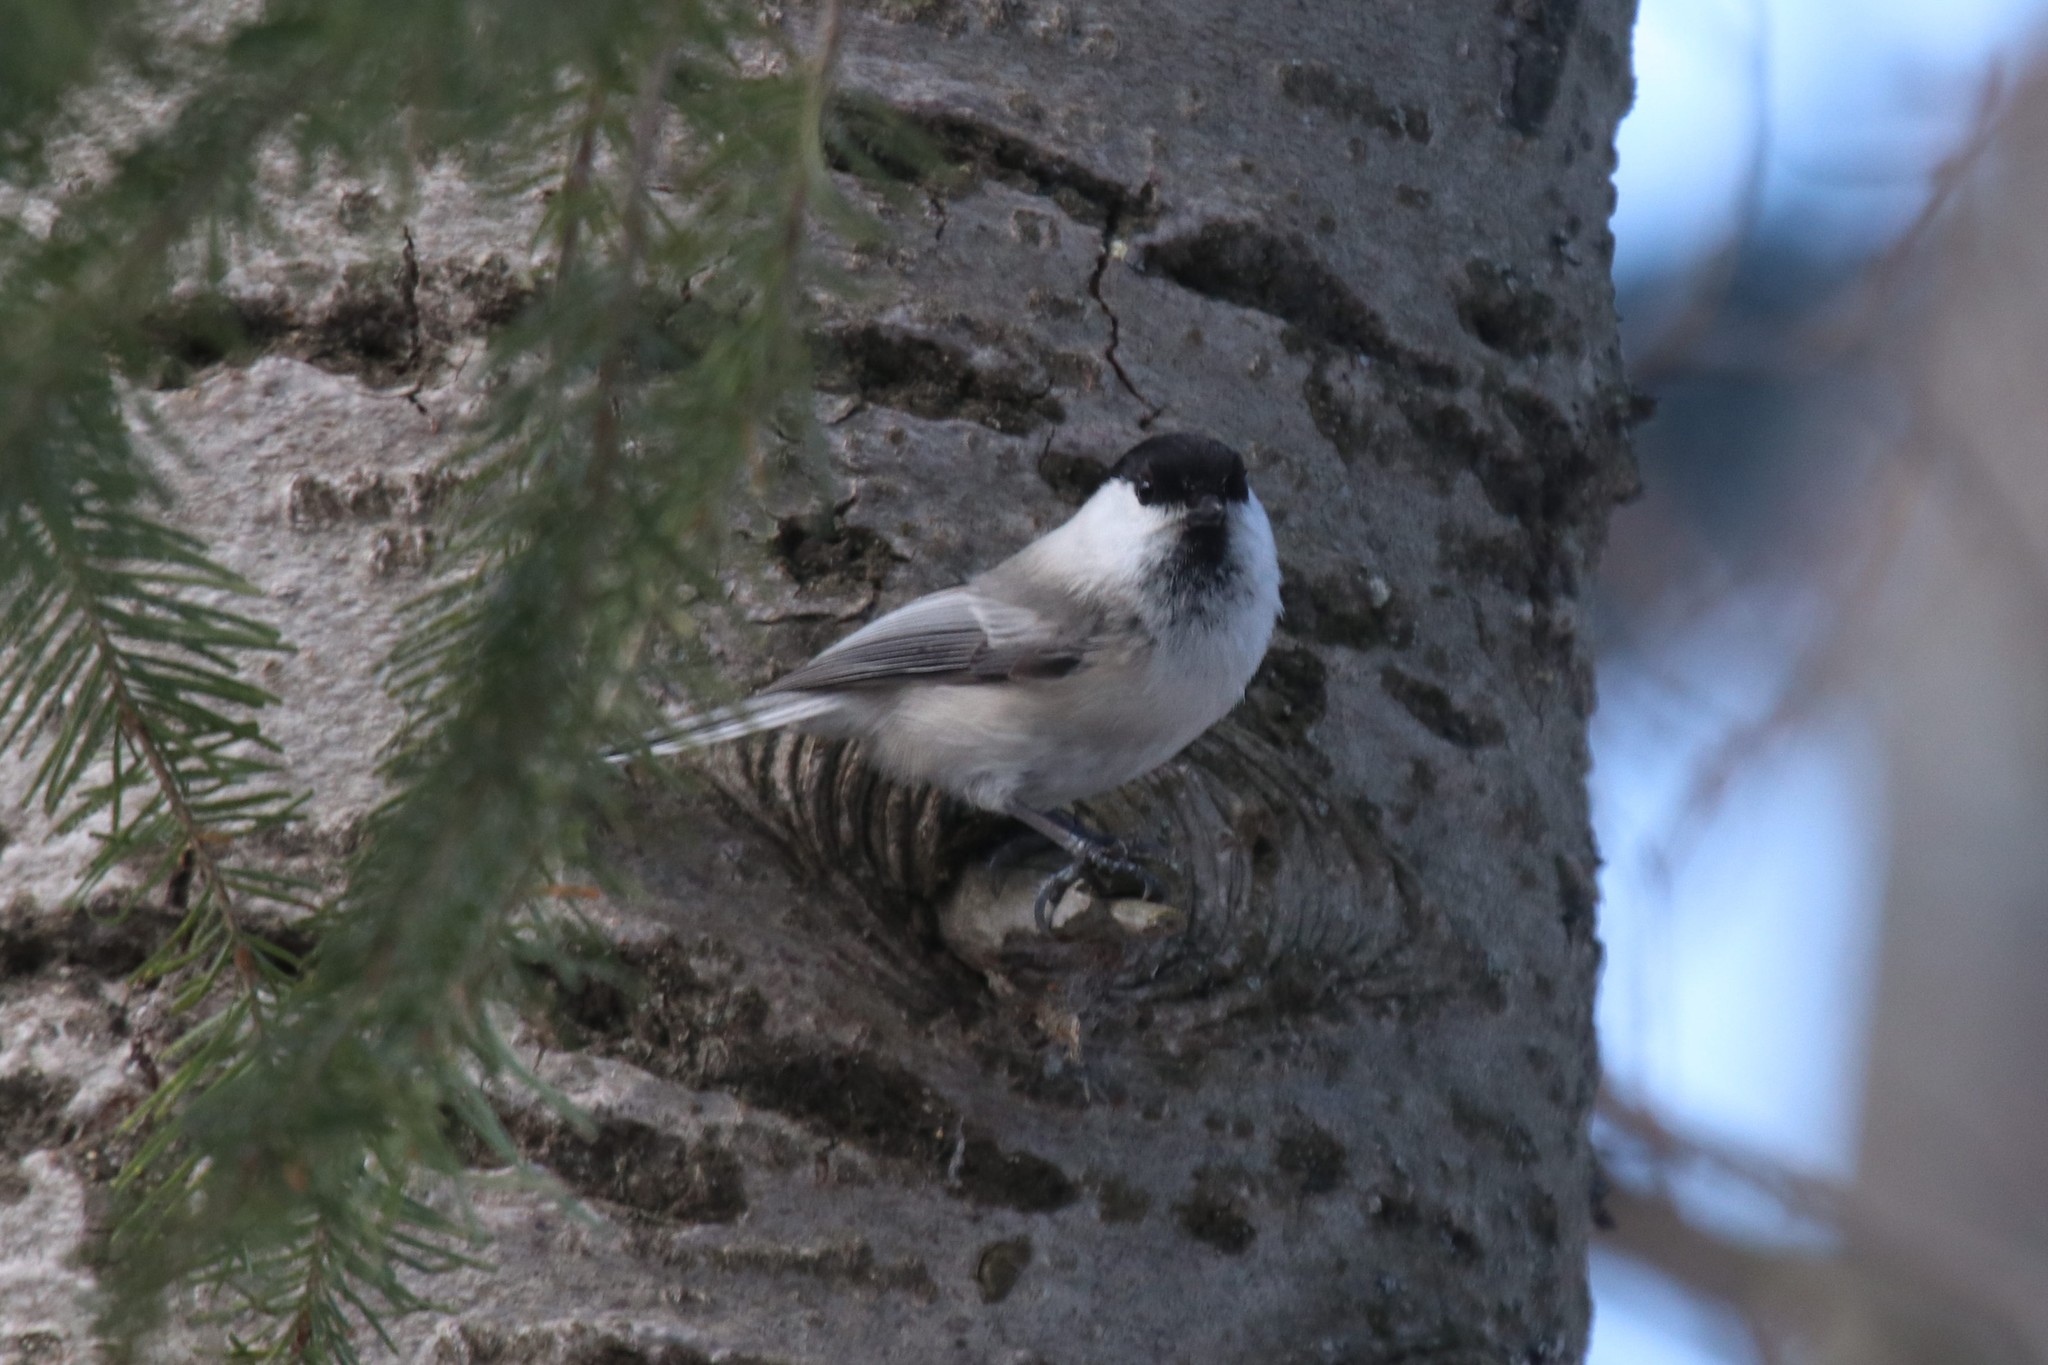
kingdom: Animalia
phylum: Chordata
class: Aves
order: Passeriformes
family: Paridae
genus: Poecile
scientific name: Poecile montanus
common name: Willow tit
